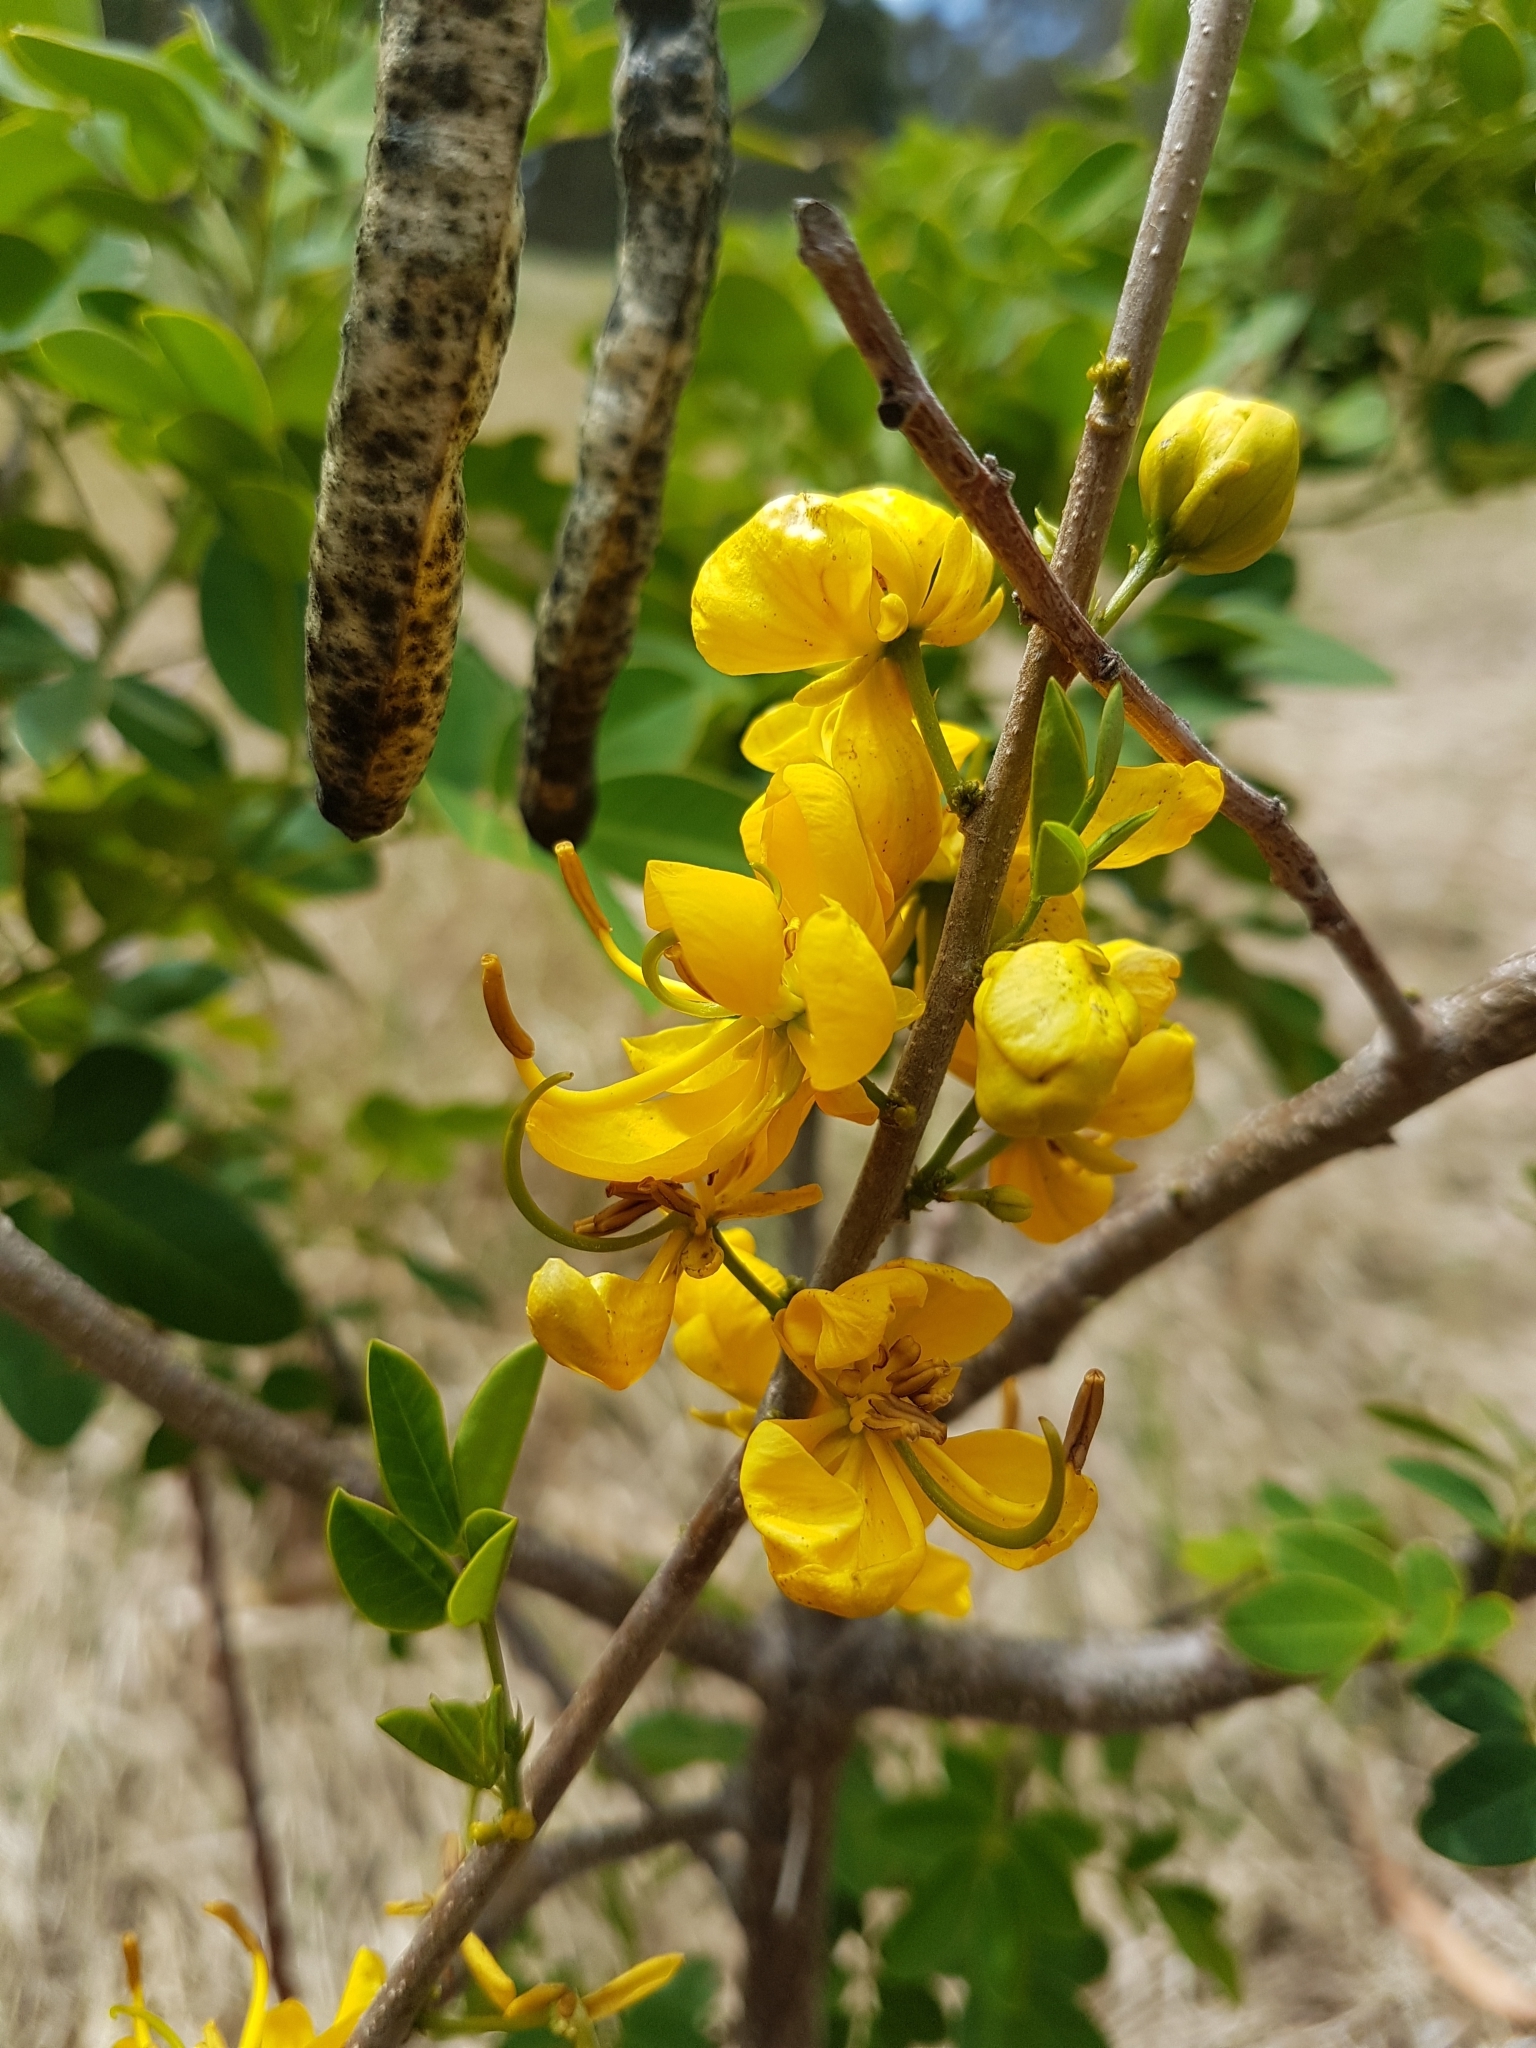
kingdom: Plantae
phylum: Tracheophyta
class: Magnoliopsida
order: Fabales
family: Fabaceae
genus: Senna
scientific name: Senna pendula
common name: Easter cassia
